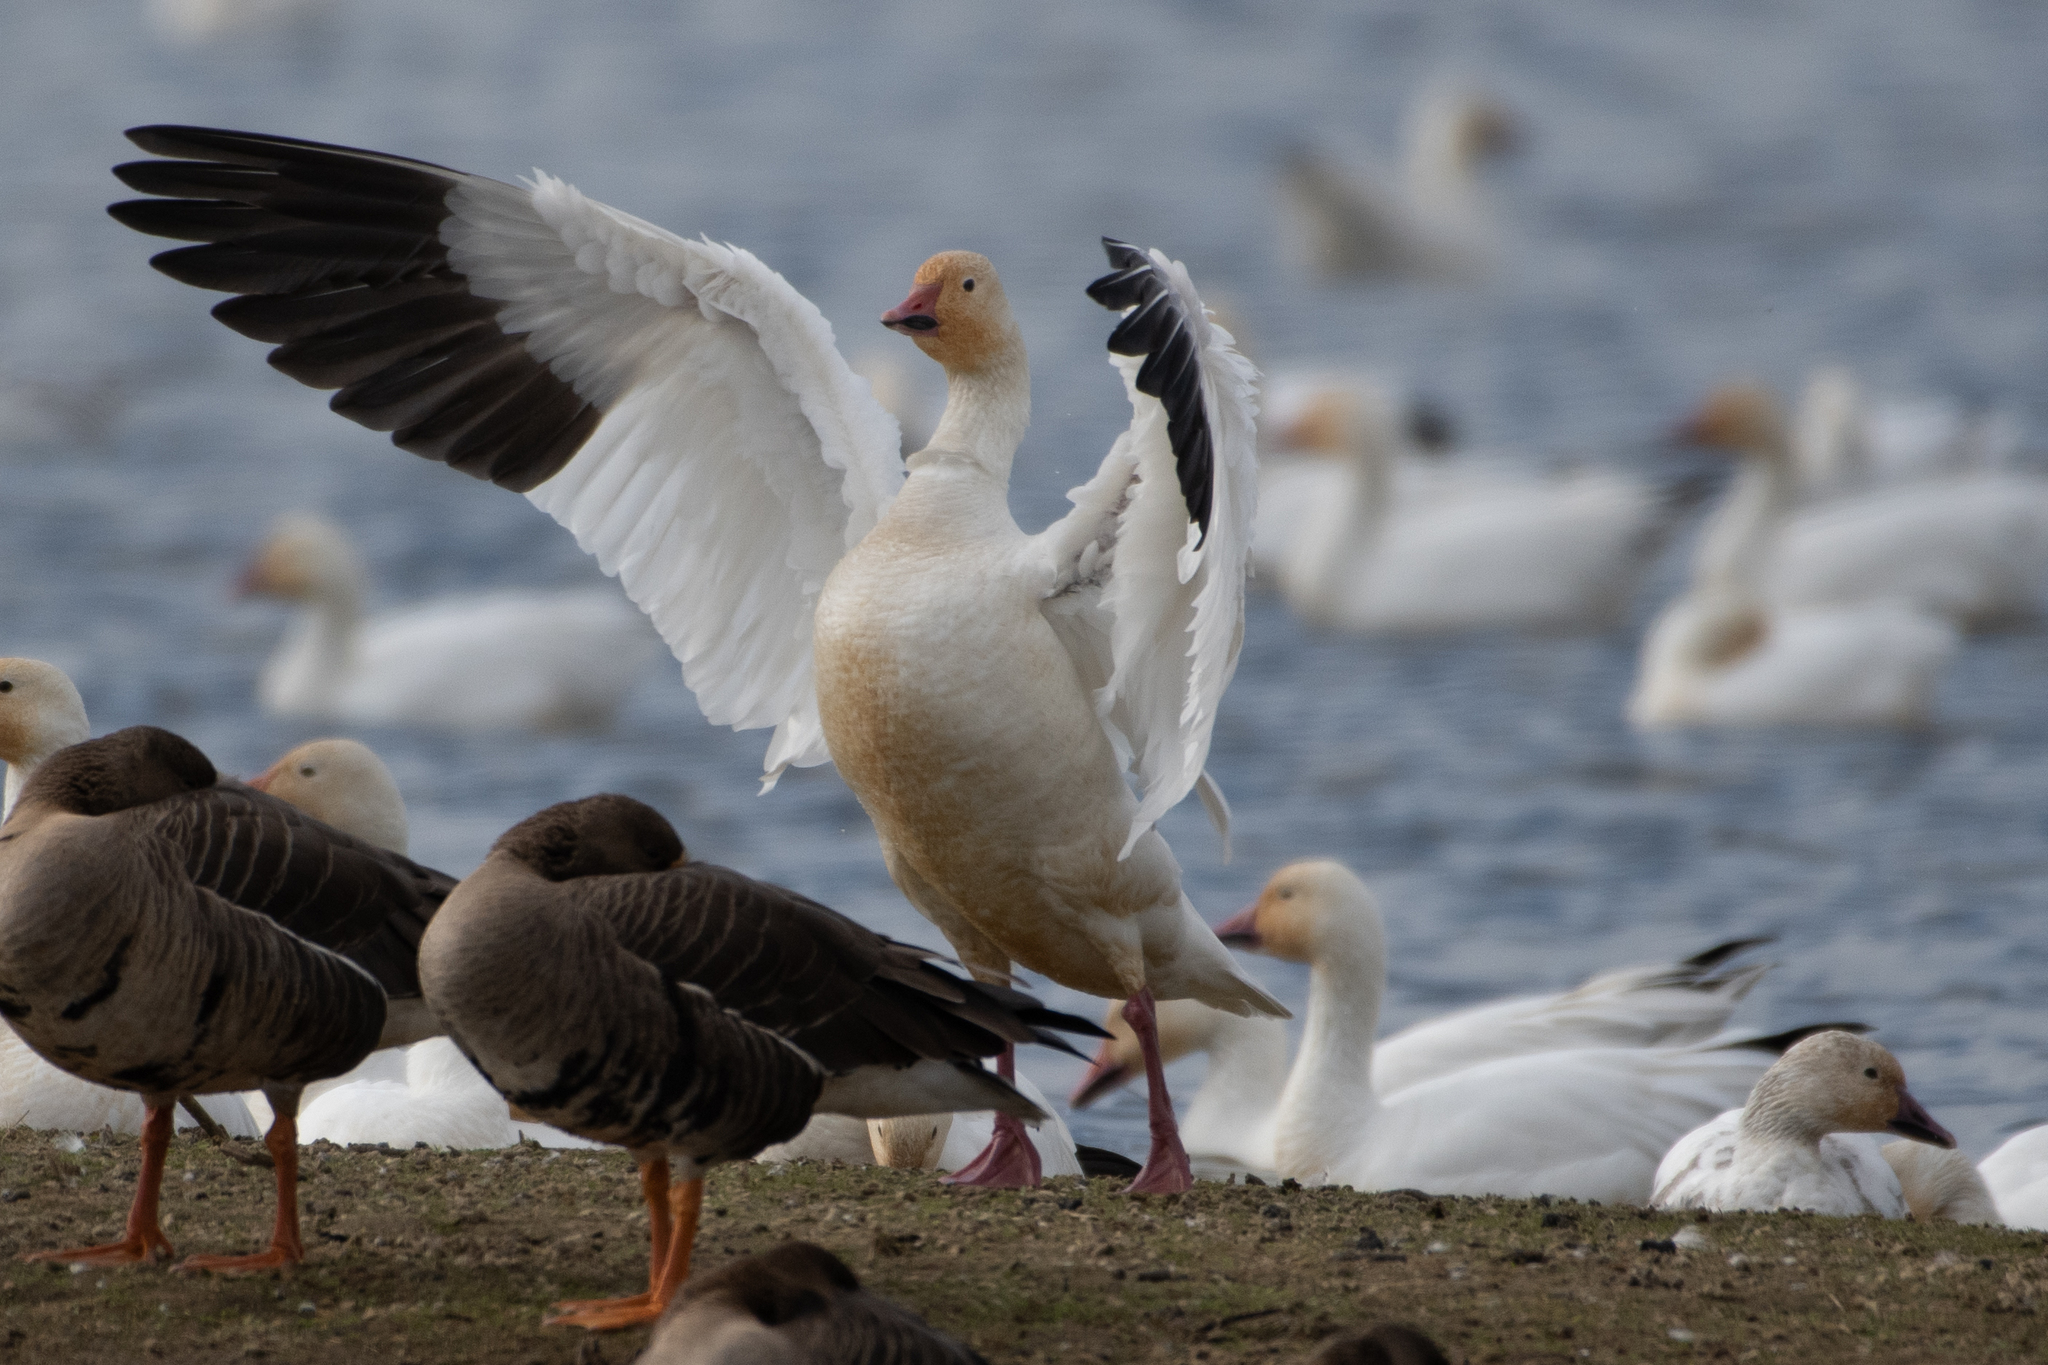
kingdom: Animalia
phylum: Chordata
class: Aves
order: Anseriformes
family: Anatidae
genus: Anser
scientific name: Anser caerulescens
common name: Snow goose
